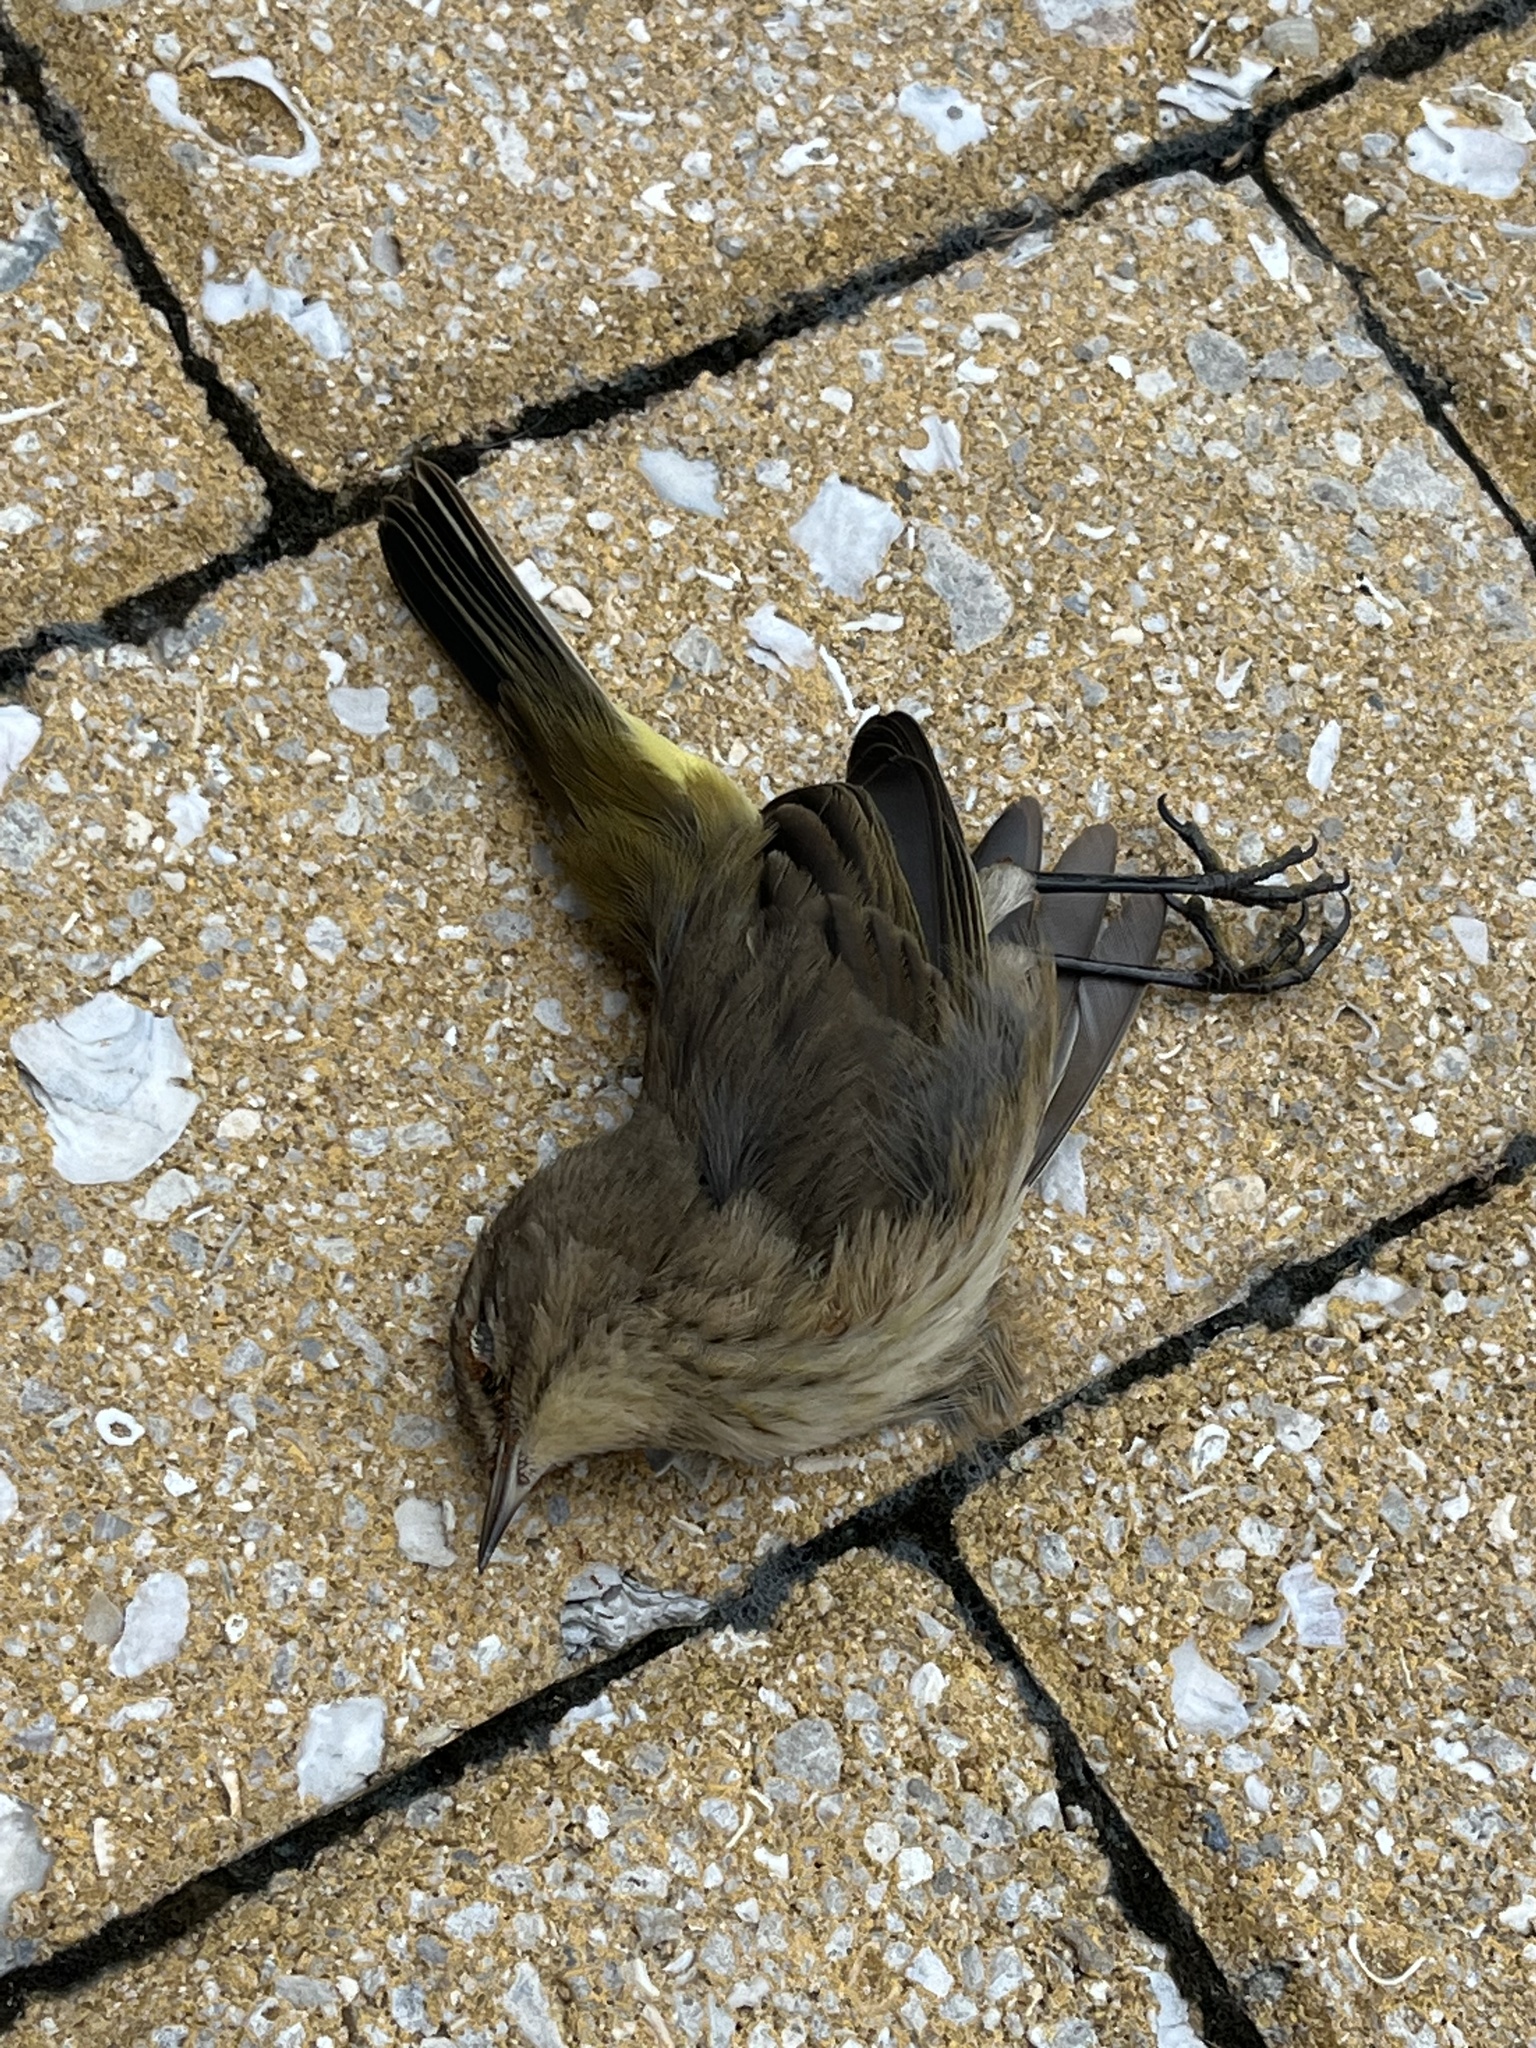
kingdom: Animalia
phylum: Chordata
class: Aves
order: Passeriformes
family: Parulidae
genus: Setophaga
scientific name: Setophaga palmarum
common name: Palm warbler
